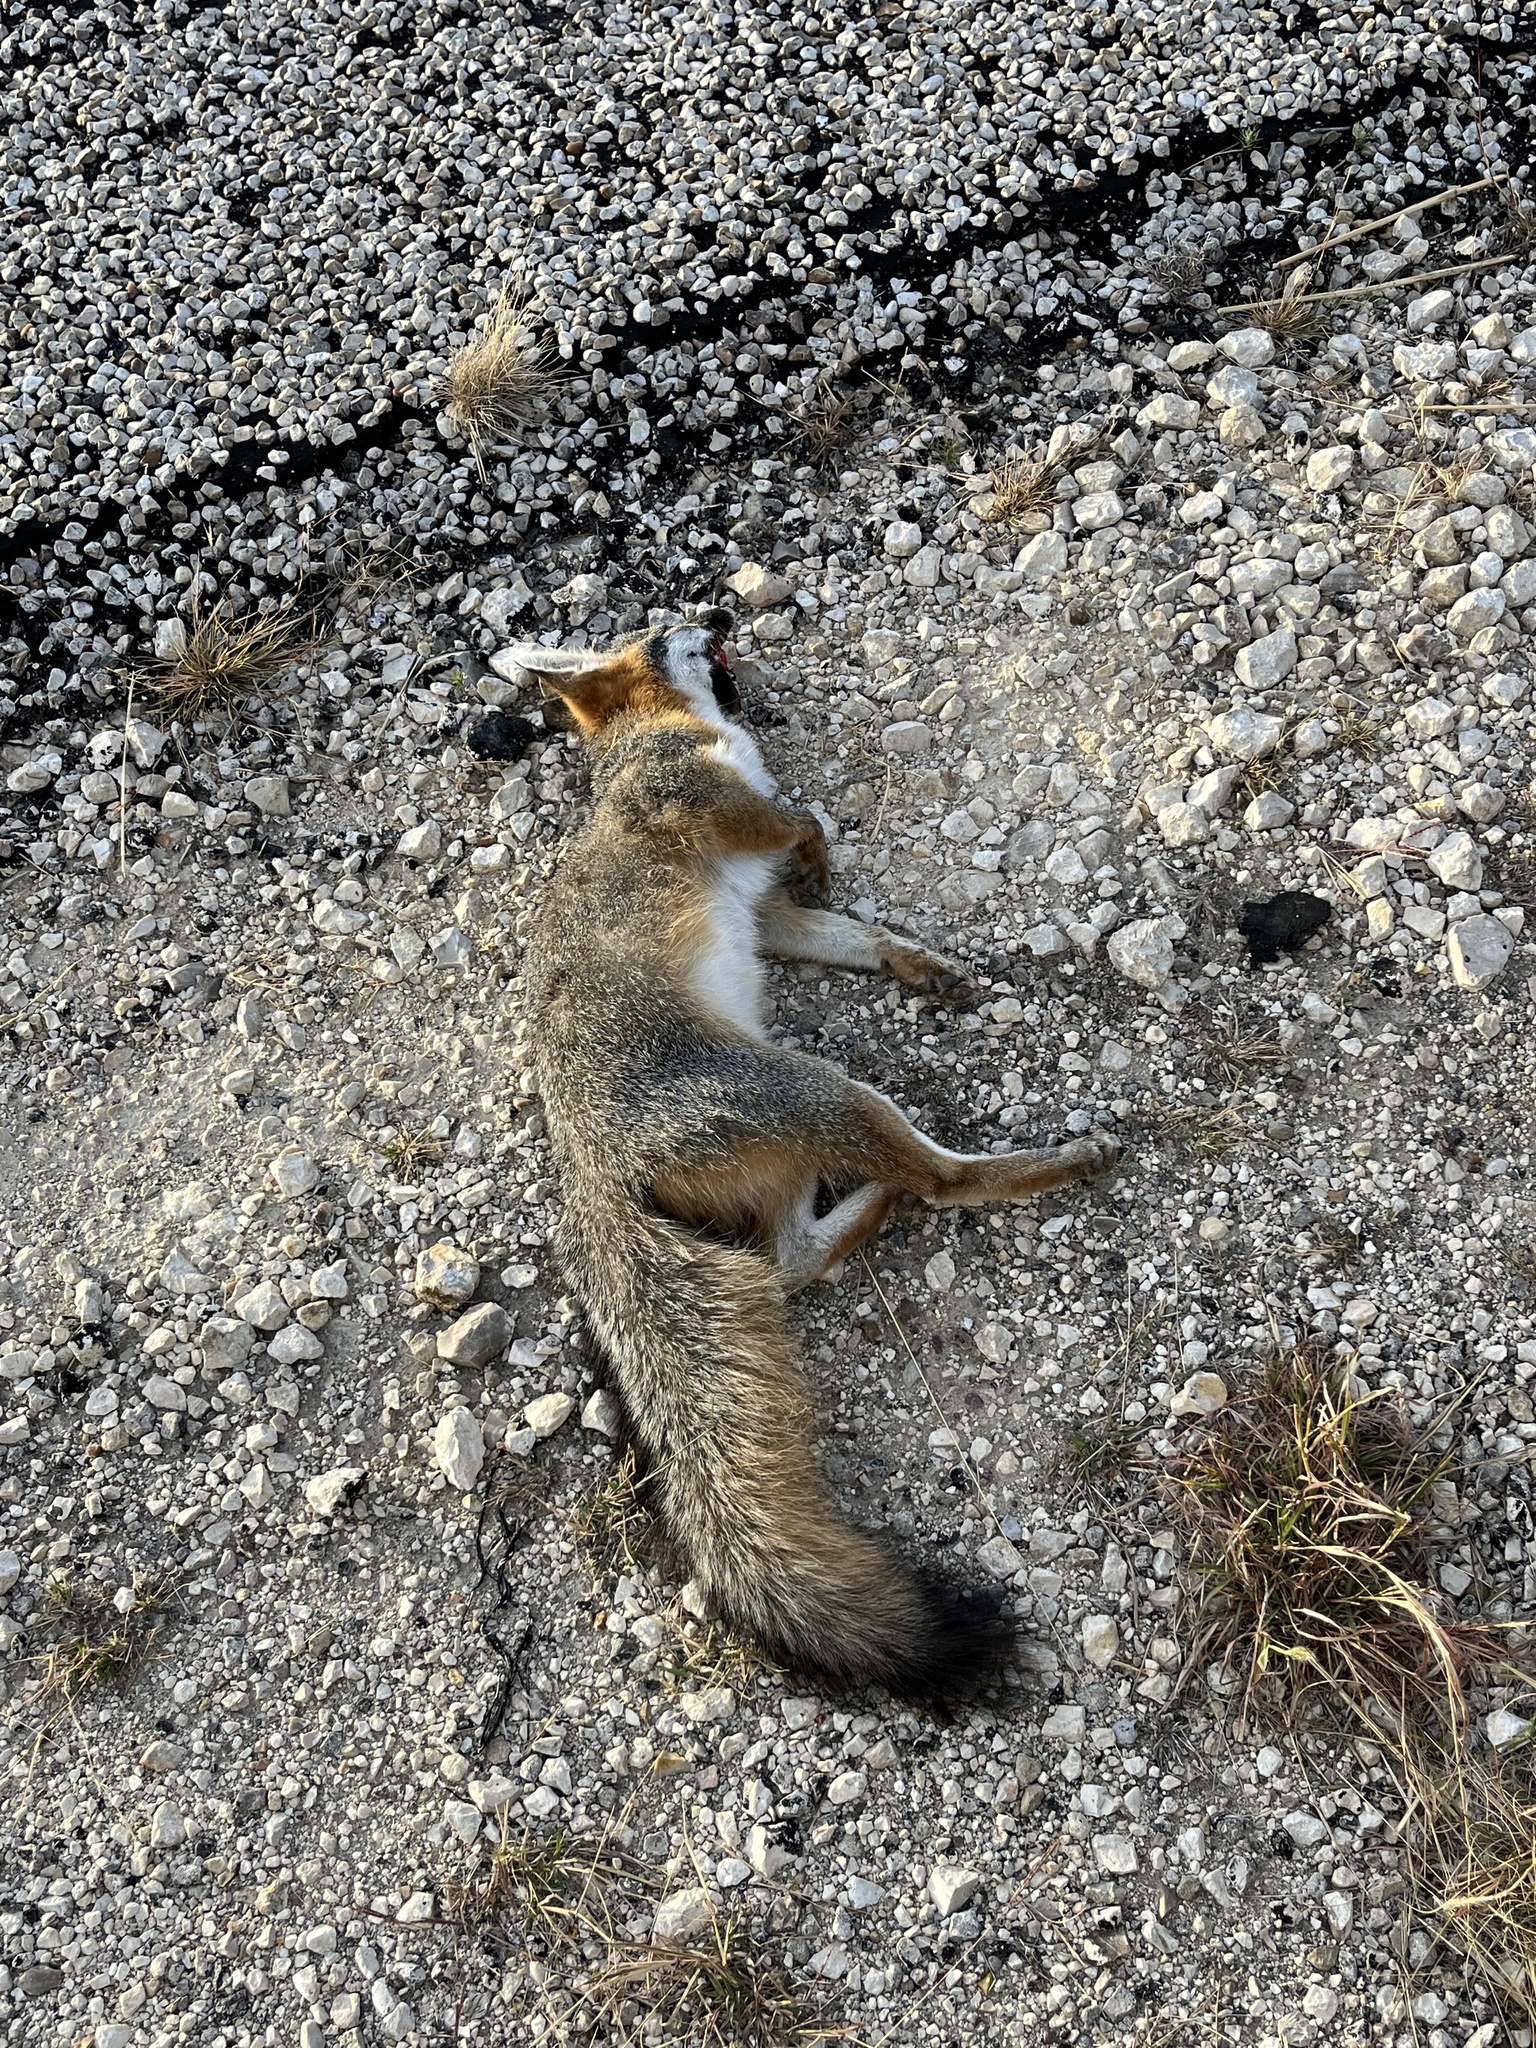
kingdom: Animalia
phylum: Chordata
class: Mammalia
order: Carnivora
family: Canidae
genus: Urocyon
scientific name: Urocyon cinereoargenteus
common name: Gray fox
